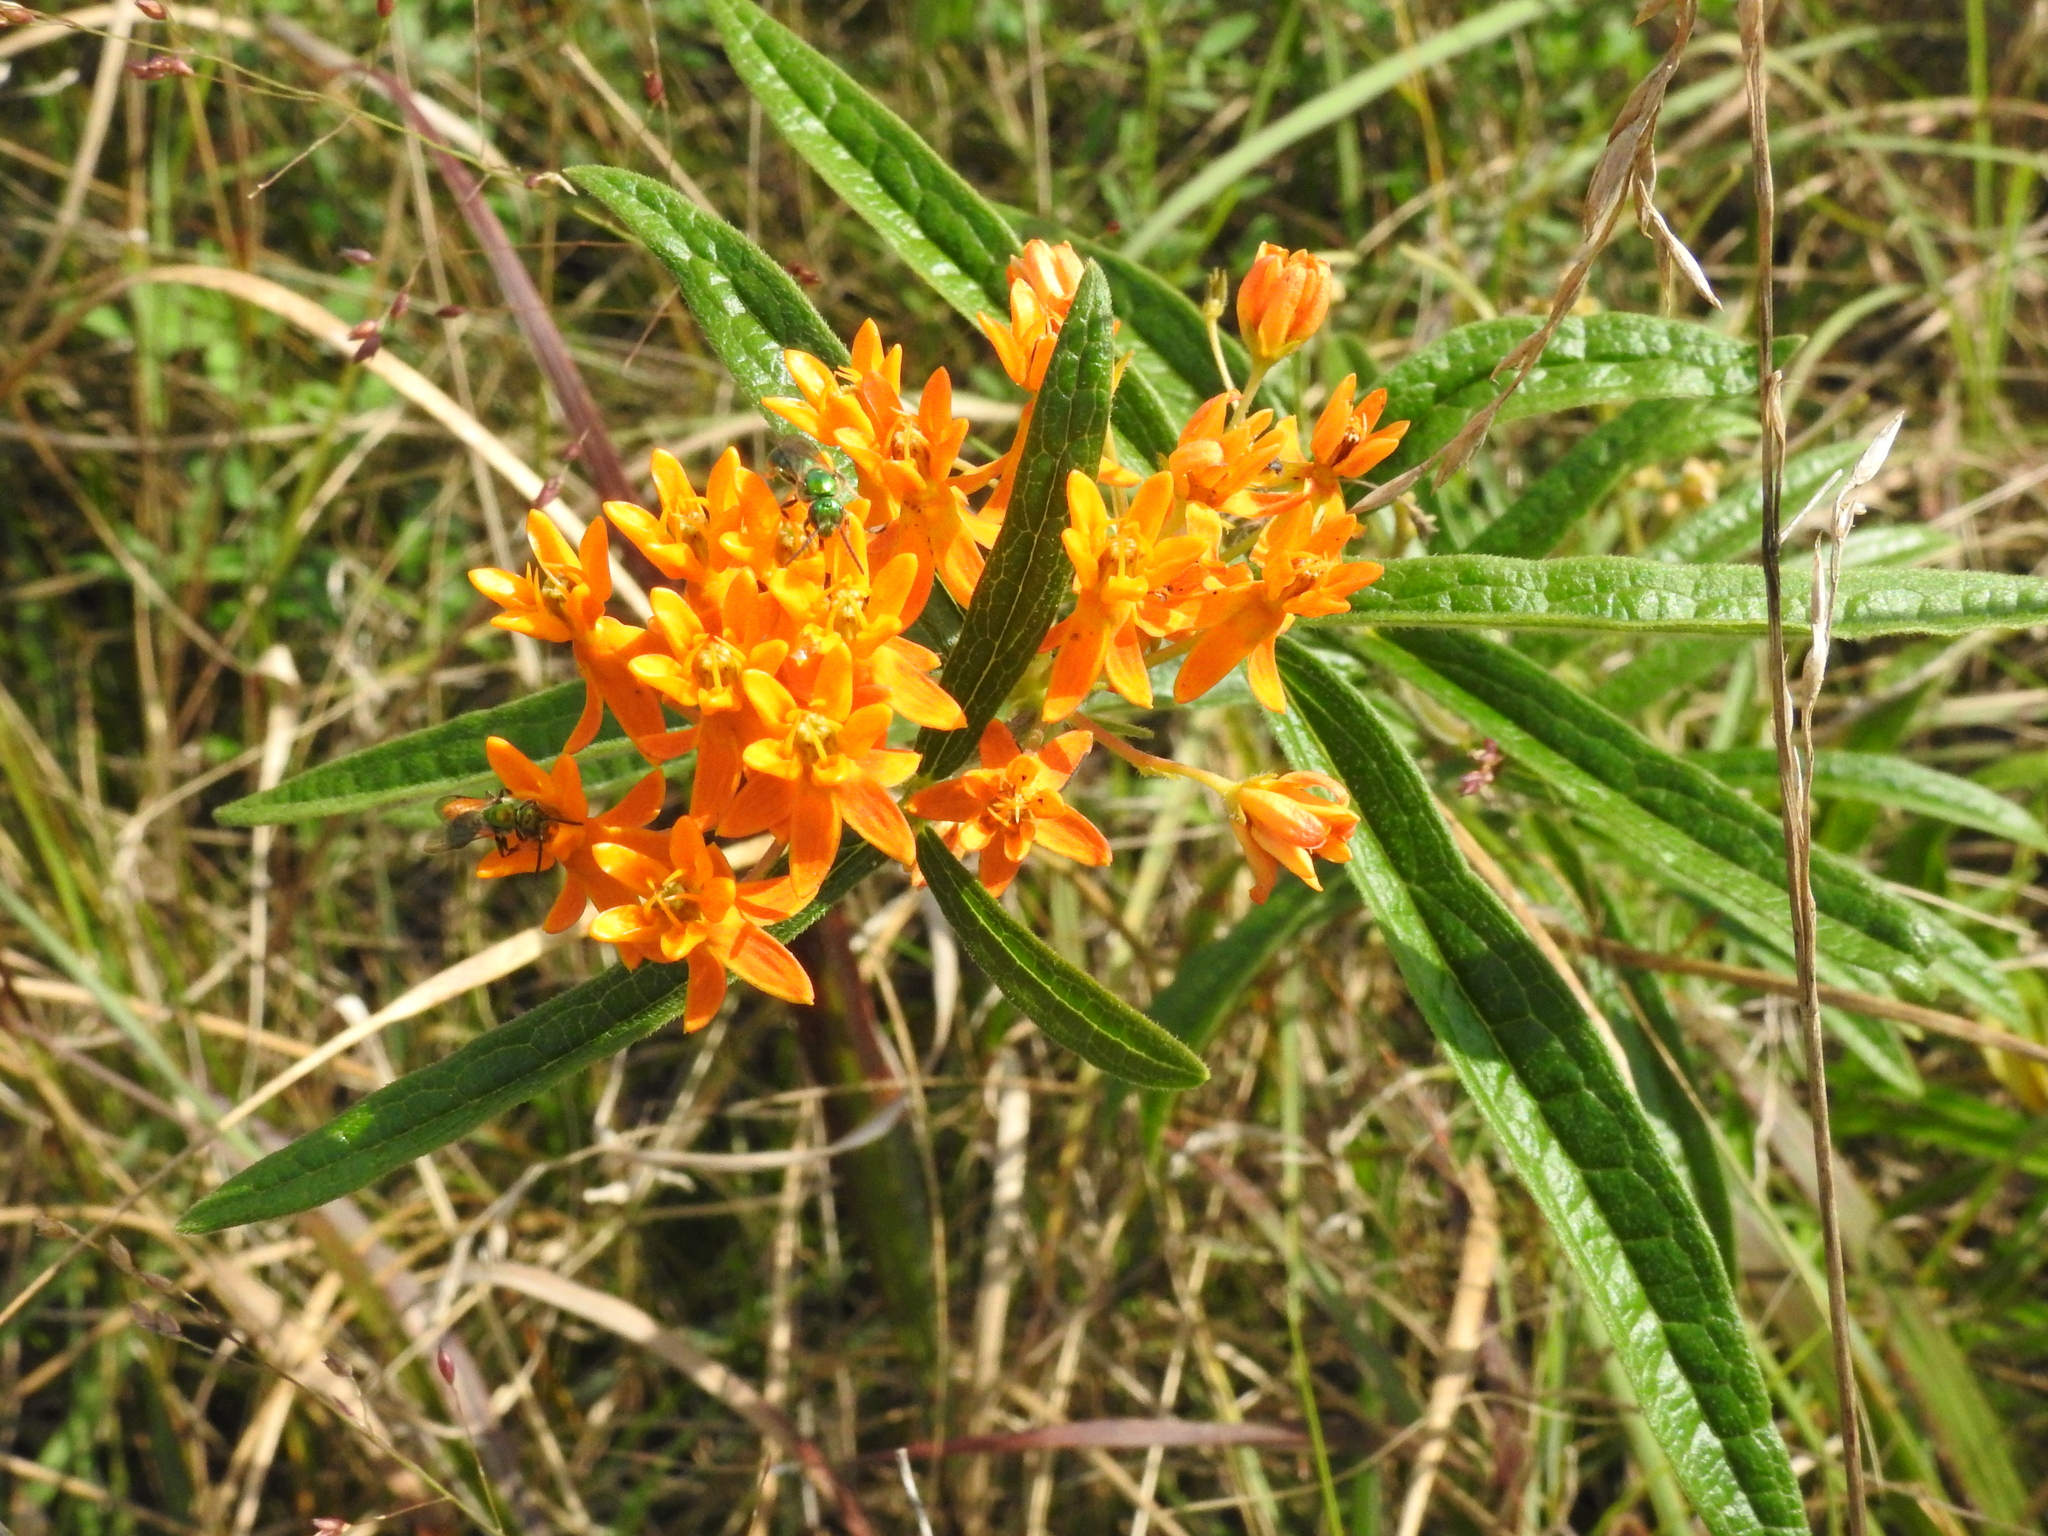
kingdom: Plantae
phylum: Tracheophyta
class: Magnoliopsida
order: Gentianales
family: Apocynaceae
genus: Asclepias
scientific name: Asclepias tuberosa
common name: Butterfly milkweed
